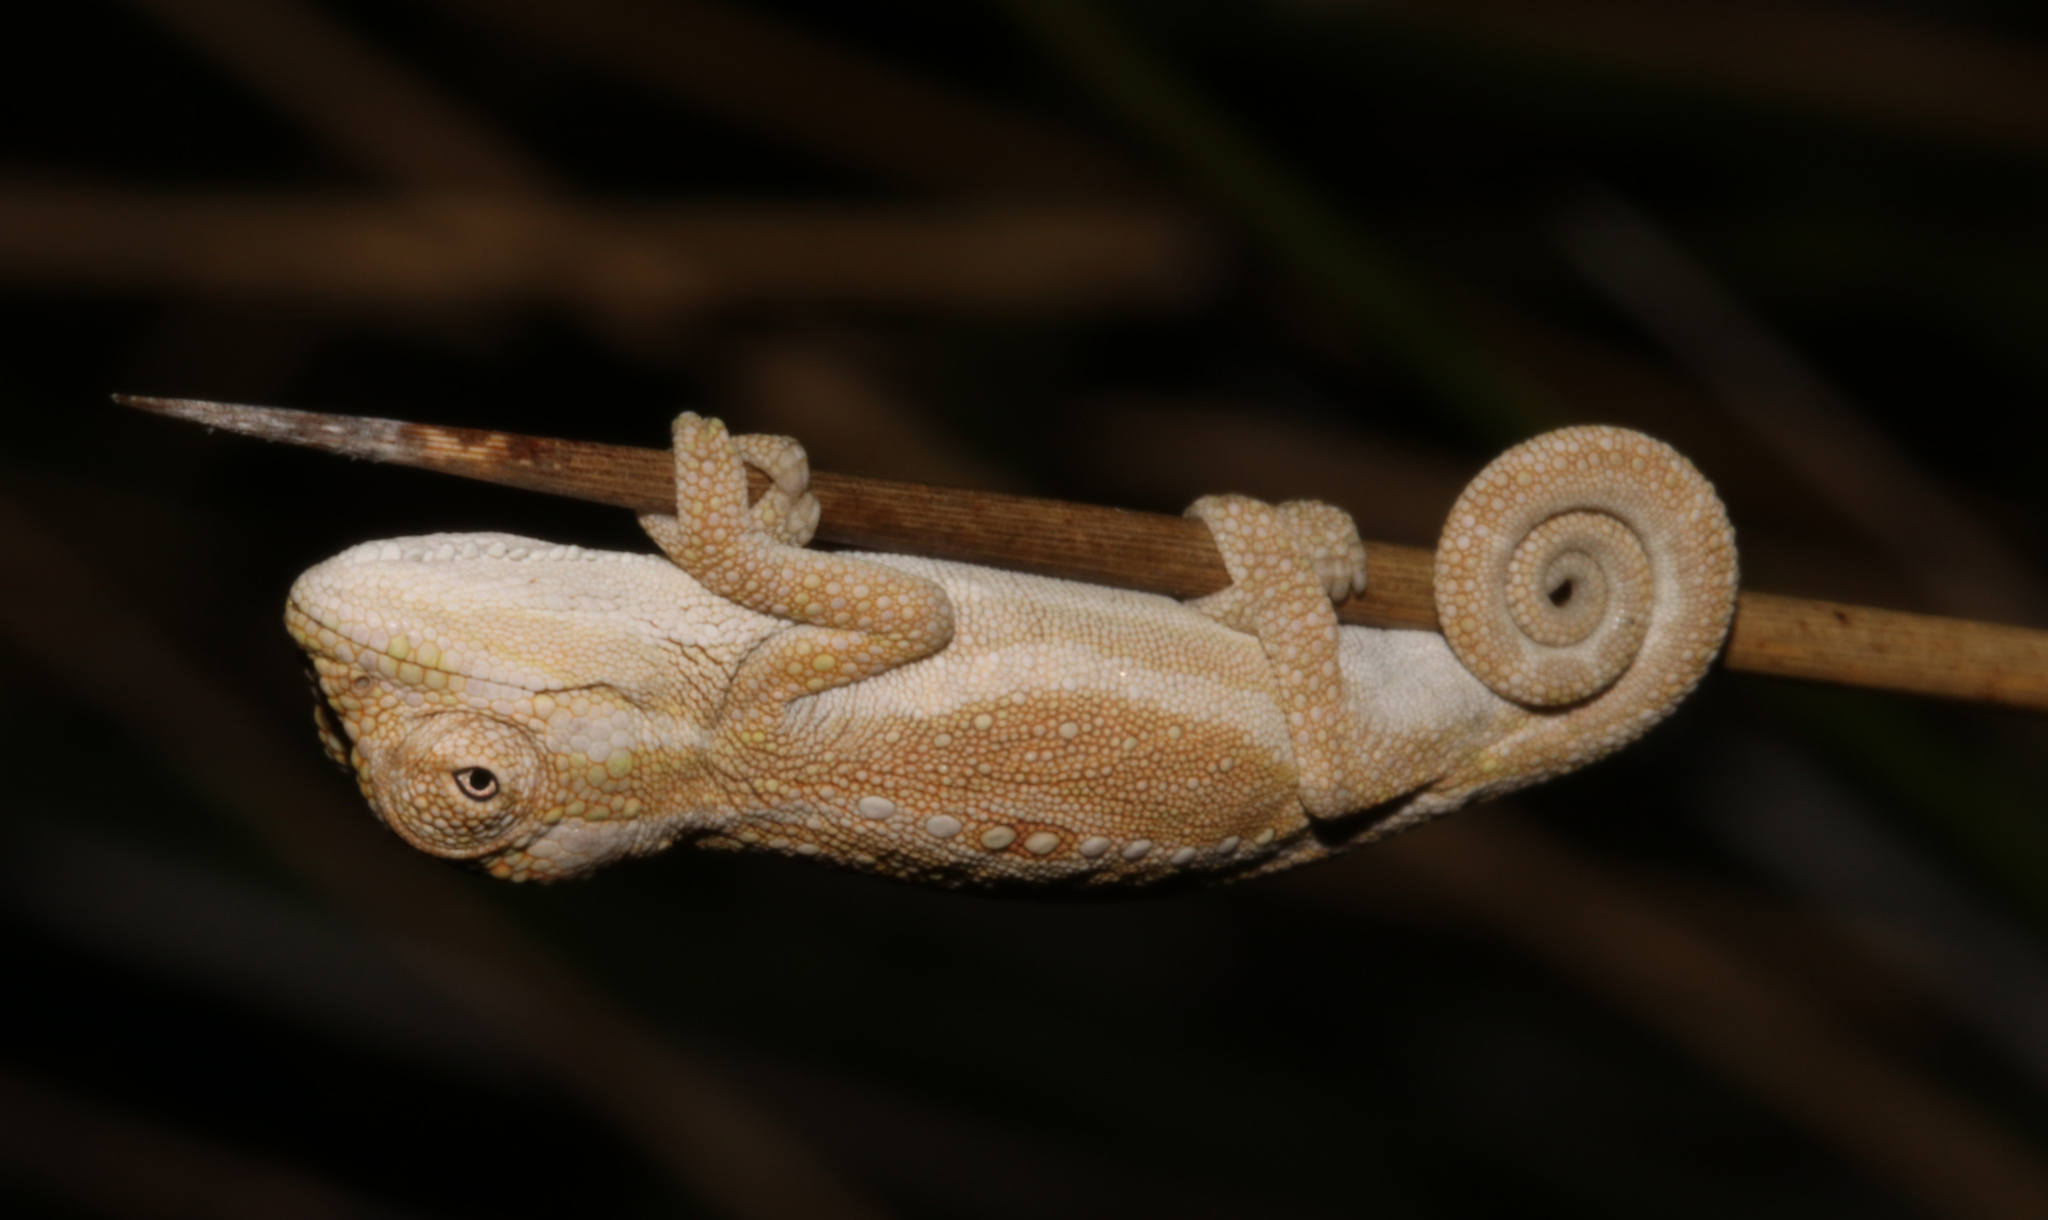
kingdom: Animalia
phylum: Chordata
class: Squamata
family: Chamaeleonidae
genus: Bradypodion
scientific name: Bradypodion pumilum
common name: Cape dwarf chameleon
